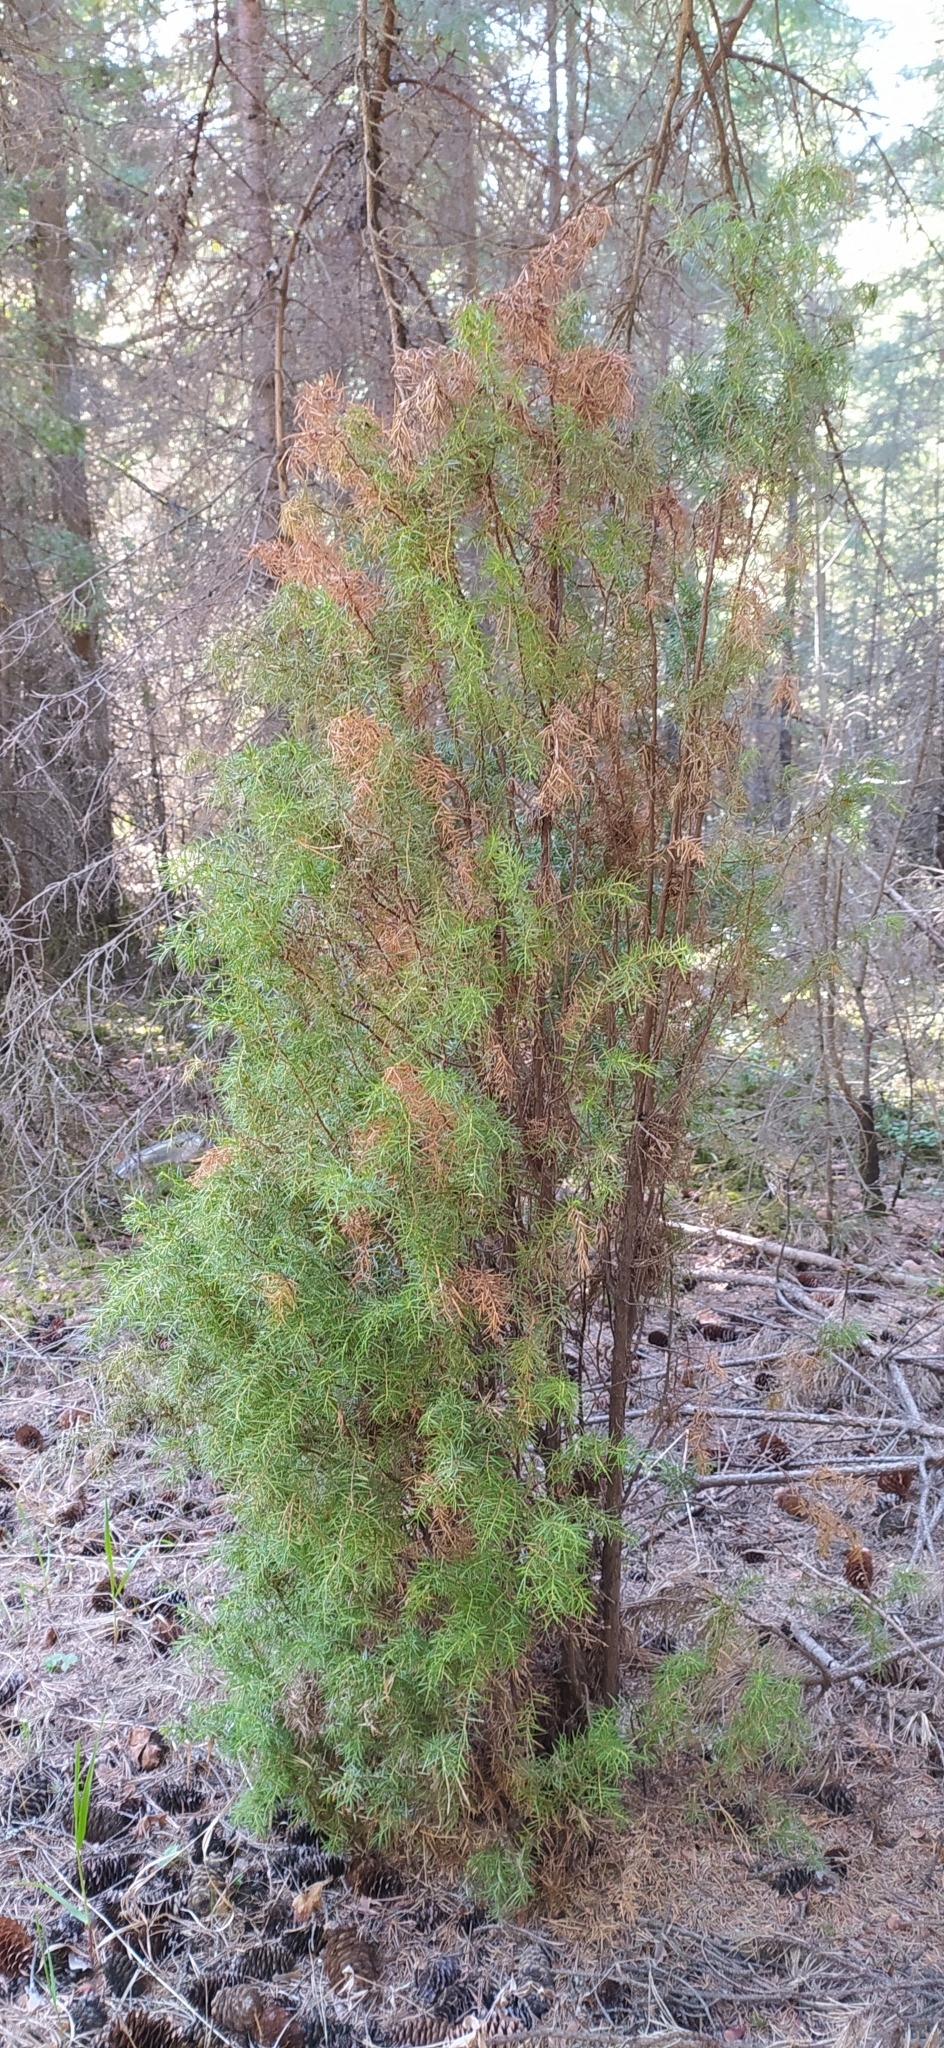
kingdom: Plantae
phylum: Tracheophyta
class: Pinopsida
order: Pinales
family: Cupressaceae
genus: Juniperus
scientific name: Juniperus communis
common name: Common juniper
